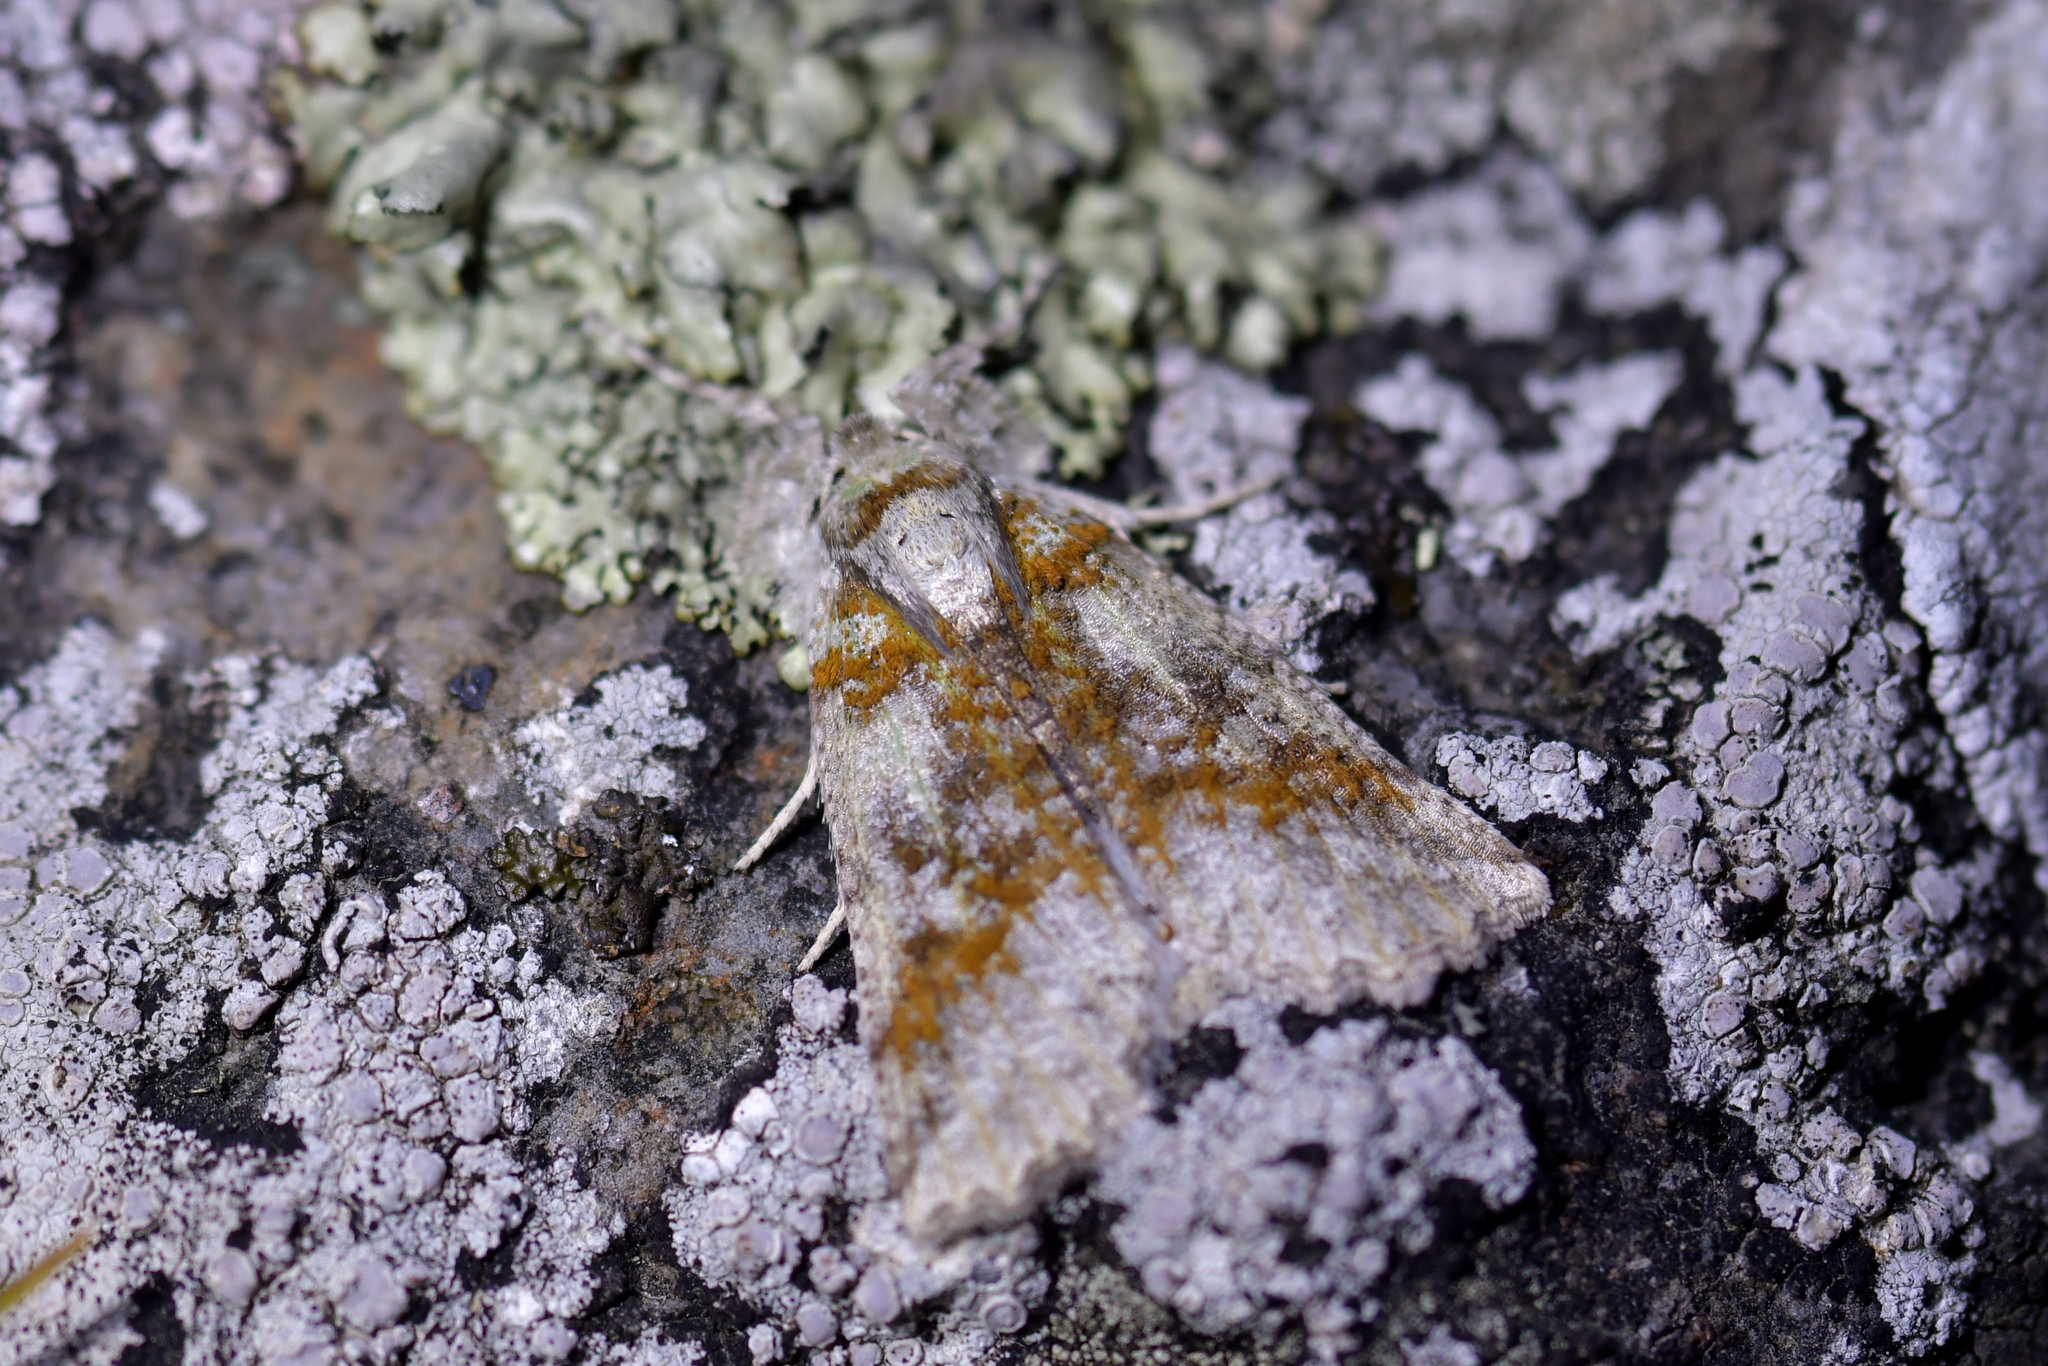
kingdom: Animalia
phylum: Arthropoda
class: Insecta
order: Lepidoptera
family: Geometridae
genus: Declana
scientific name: Declana floccosa
